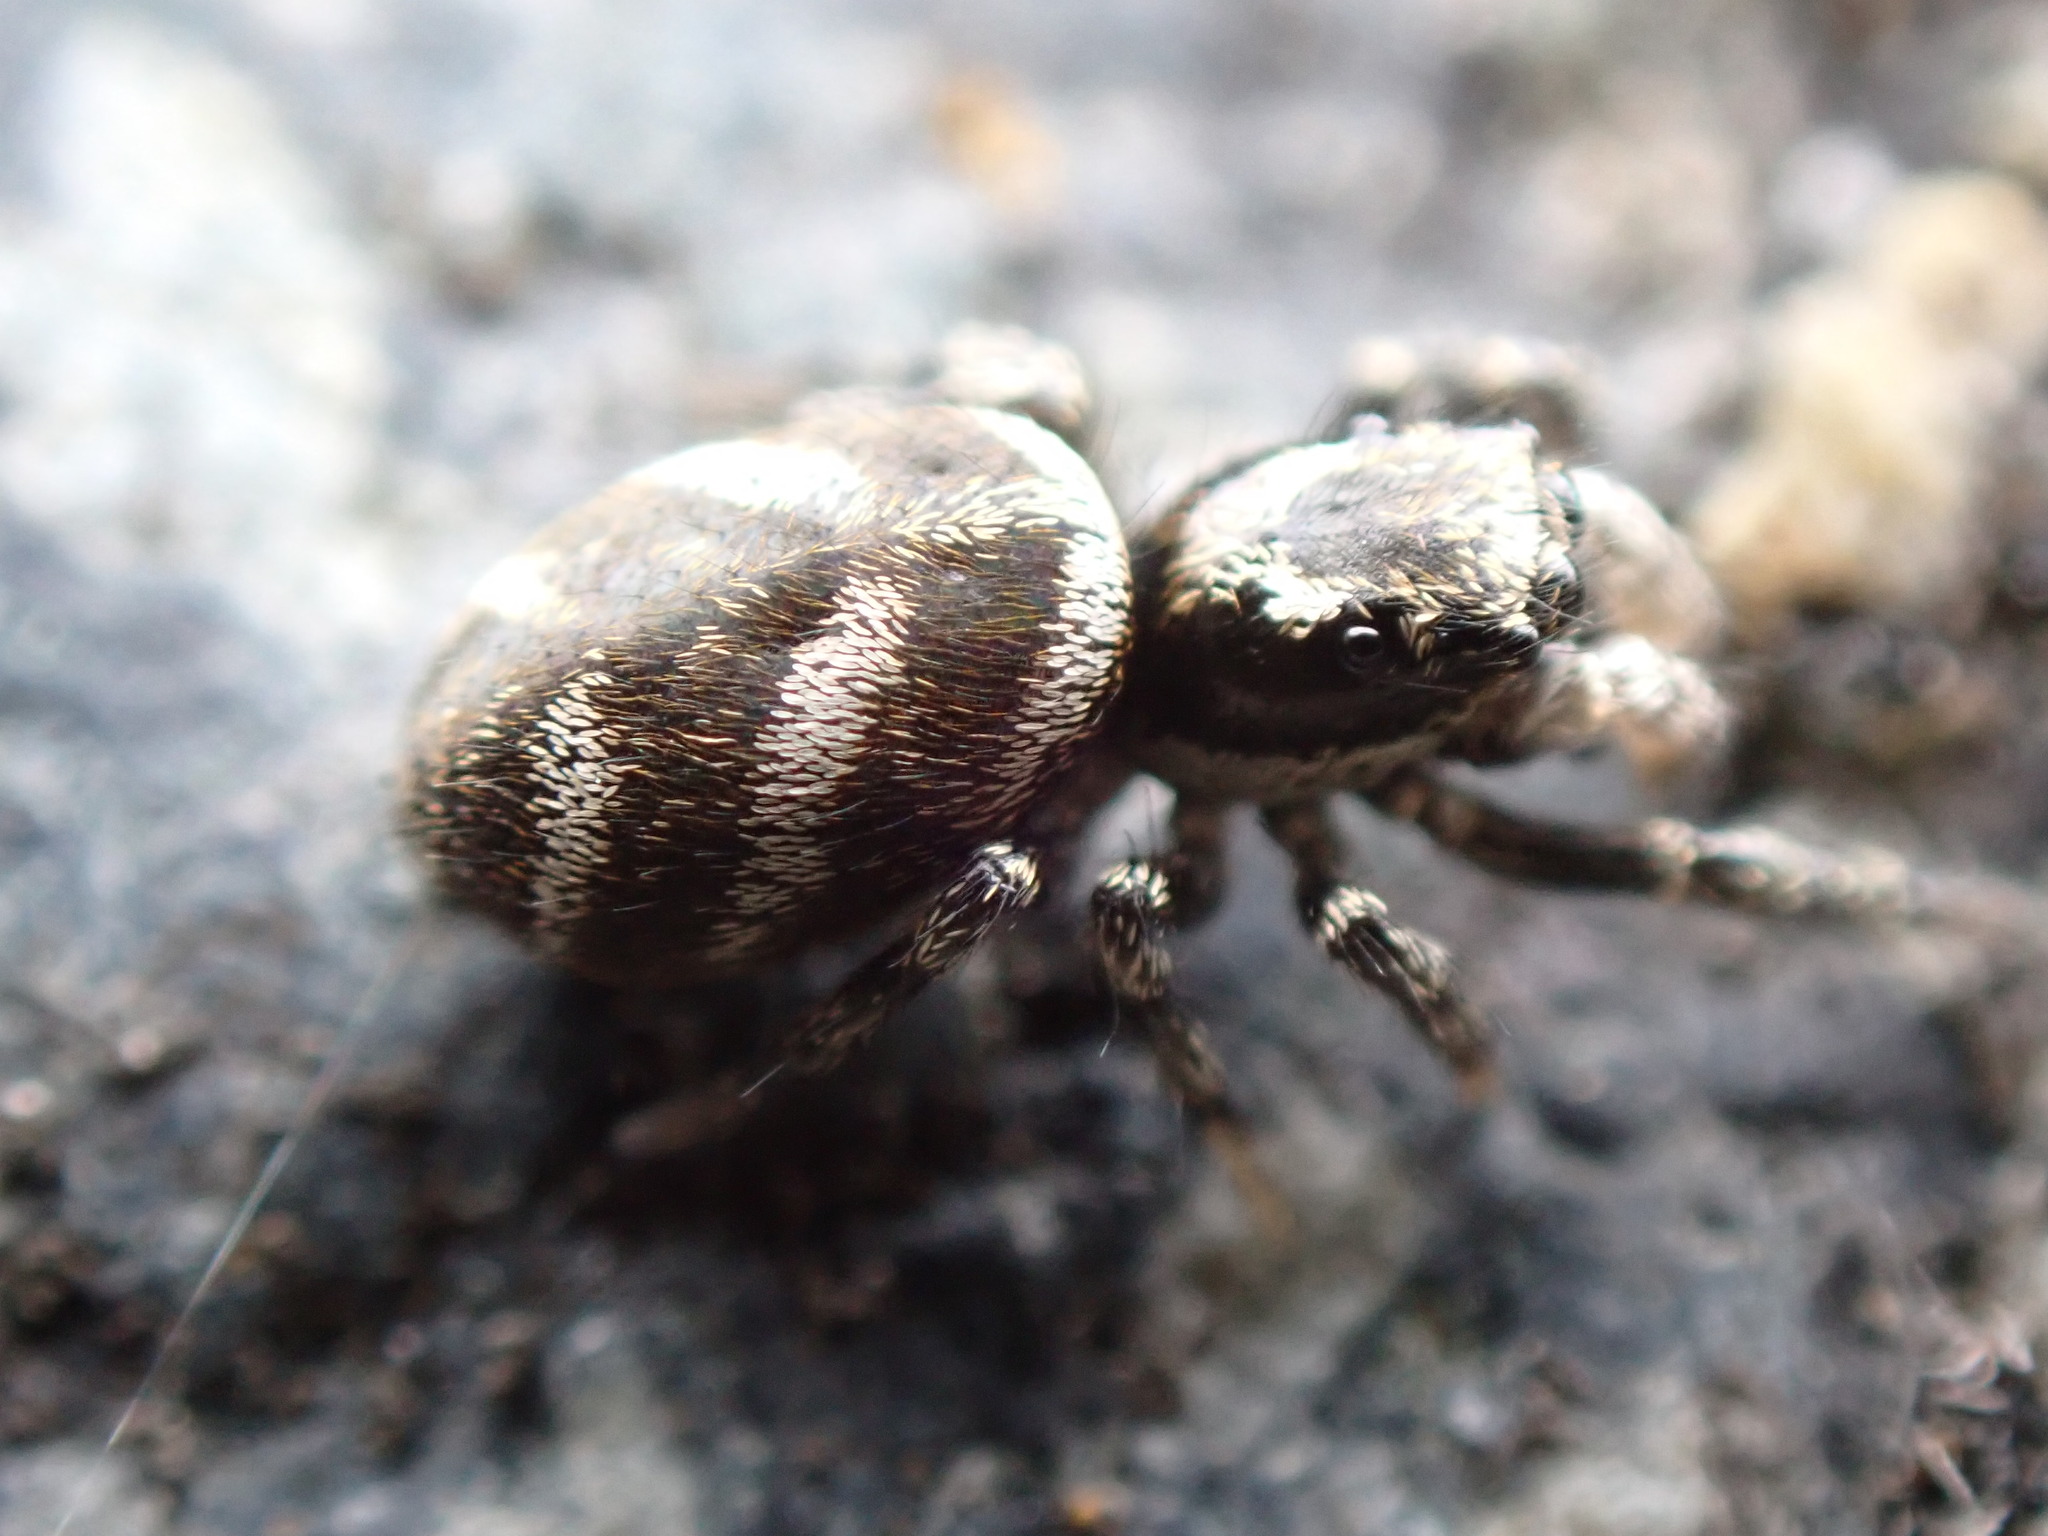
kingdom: Animalia
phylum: Arthropoda
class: Arachnida
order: Araneae
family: Salticidae
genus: Salticus
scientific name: Salticus scenicus
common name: Zebra jumper
